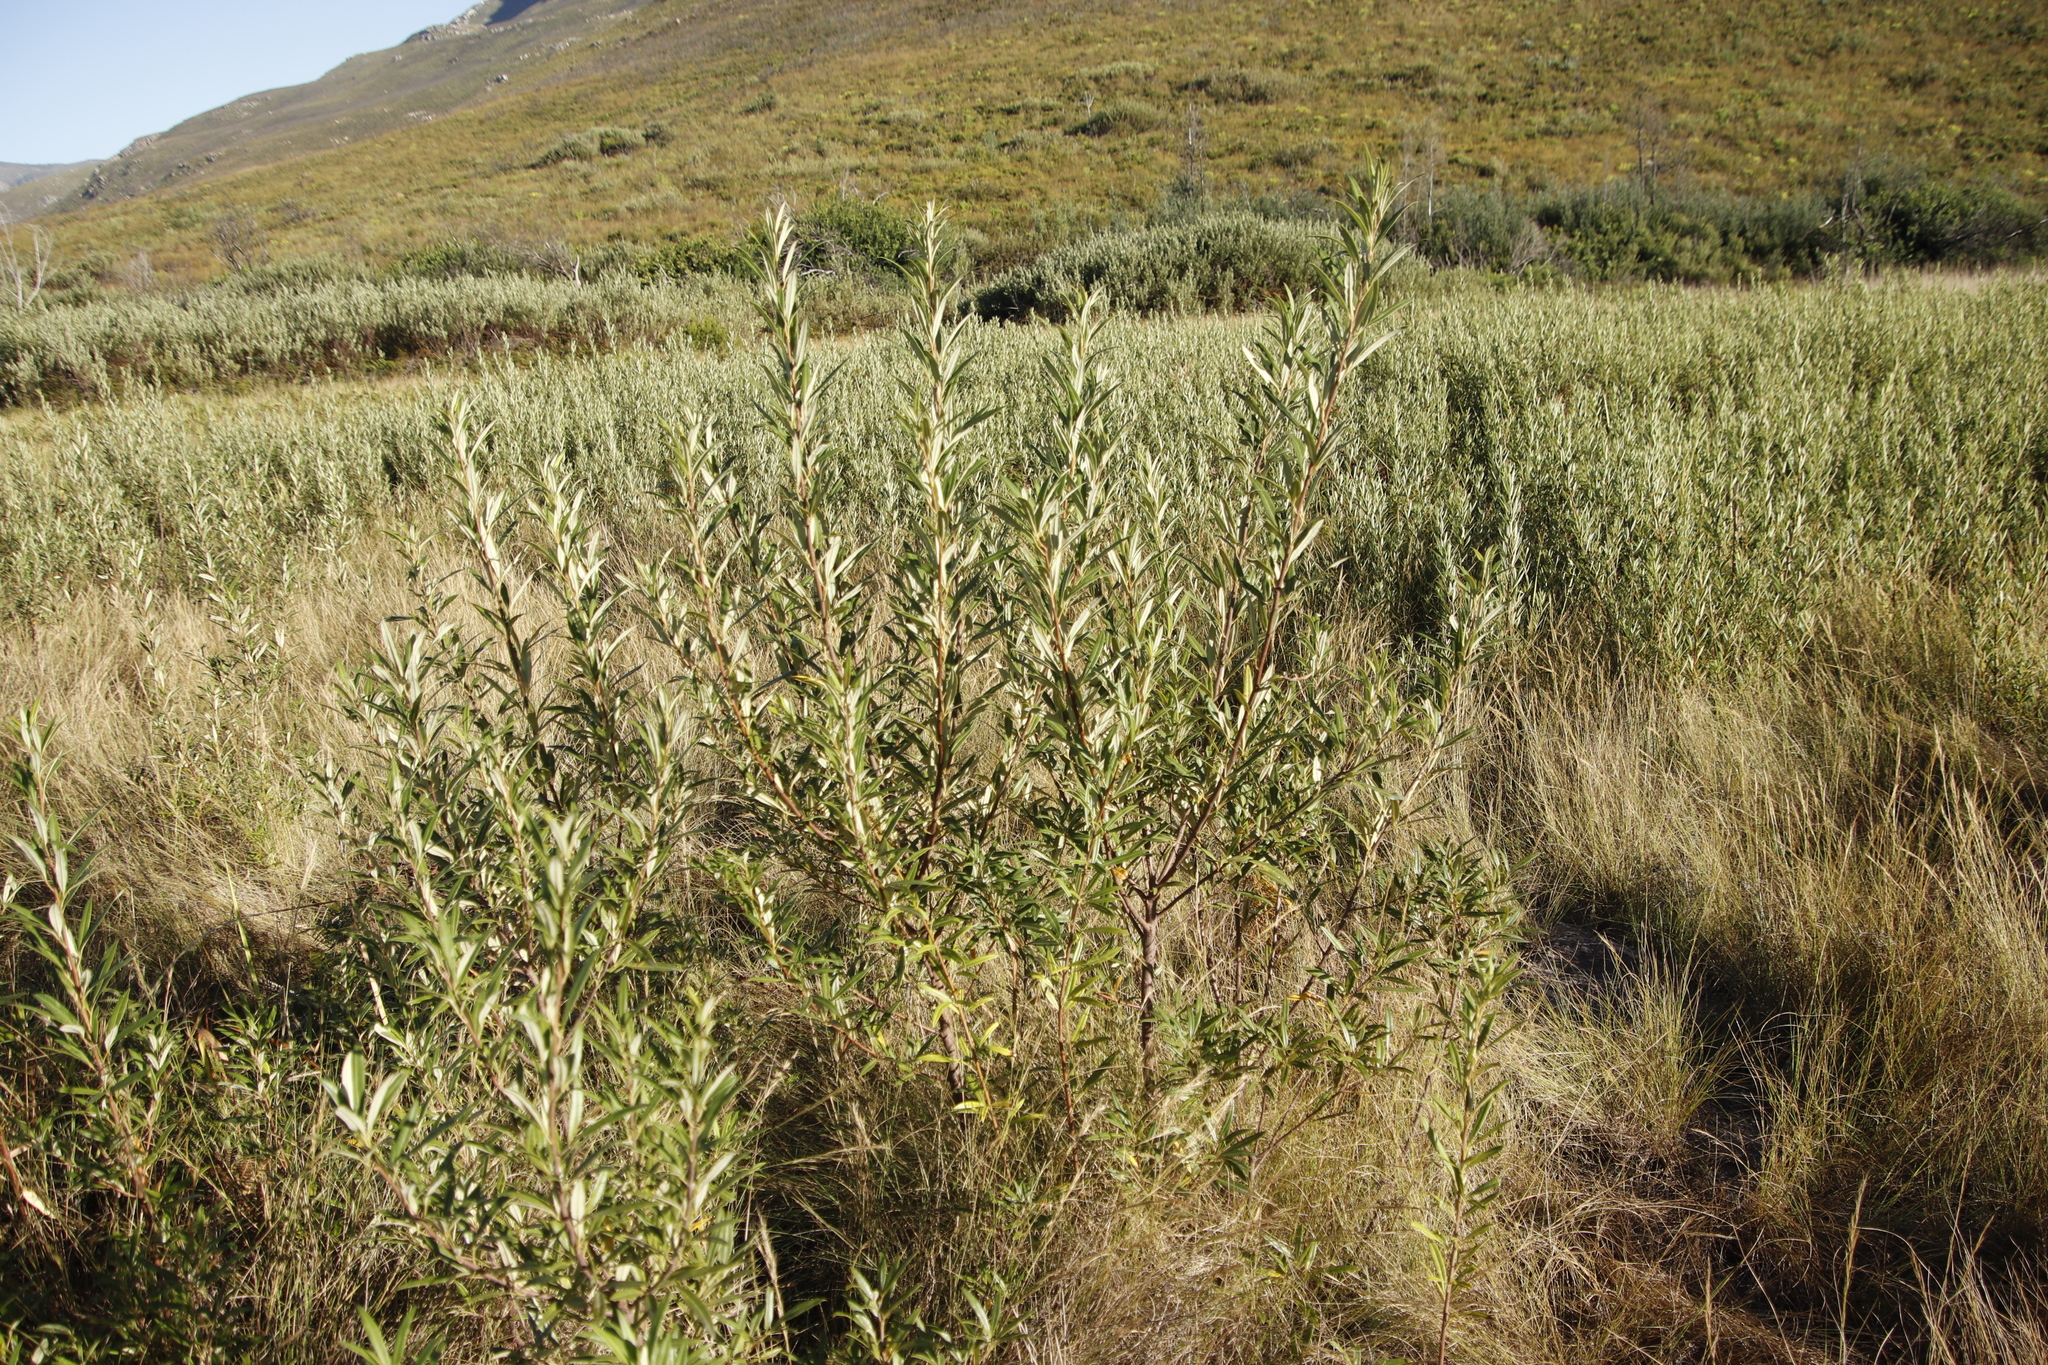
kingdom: Plantae
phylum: Tracheophyta
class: Magnoliopsida
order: Sapindales
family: Anacardiaceae
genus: Searsia
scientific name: Searsia angustifolia
